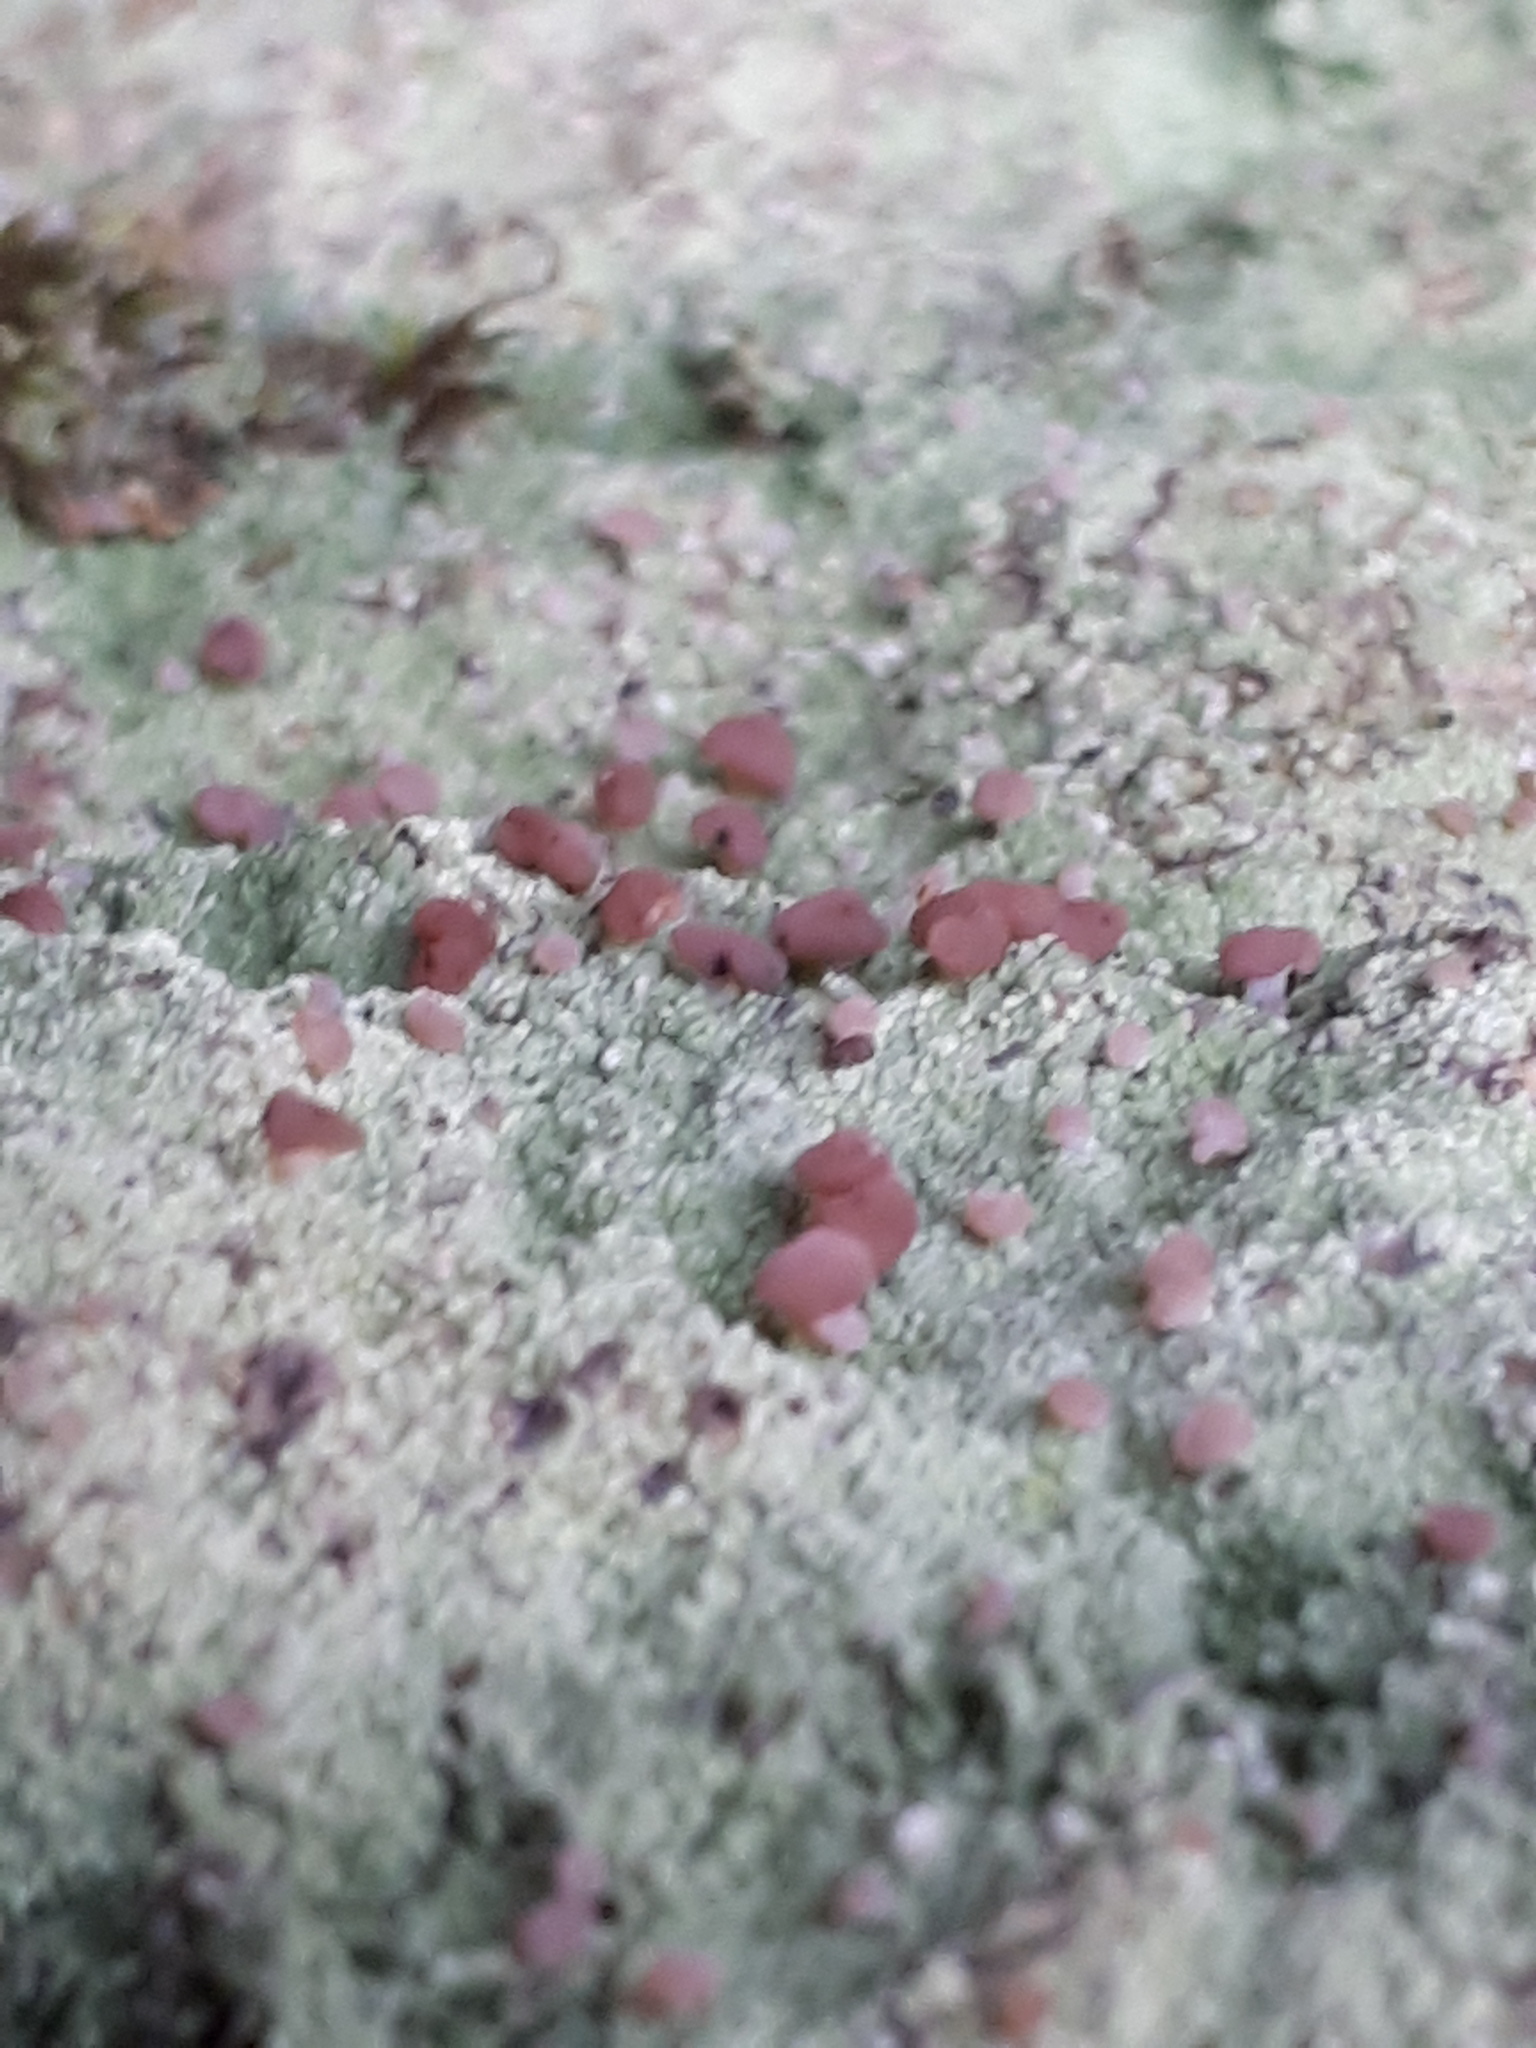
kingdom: Fungi
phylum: Ascomycota
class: Lecanoromycetes
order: Baeomycetales
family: Baeomycetaceae
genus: Baeomyces
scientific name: Baeomyces rufus
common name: Brown beret lichen
